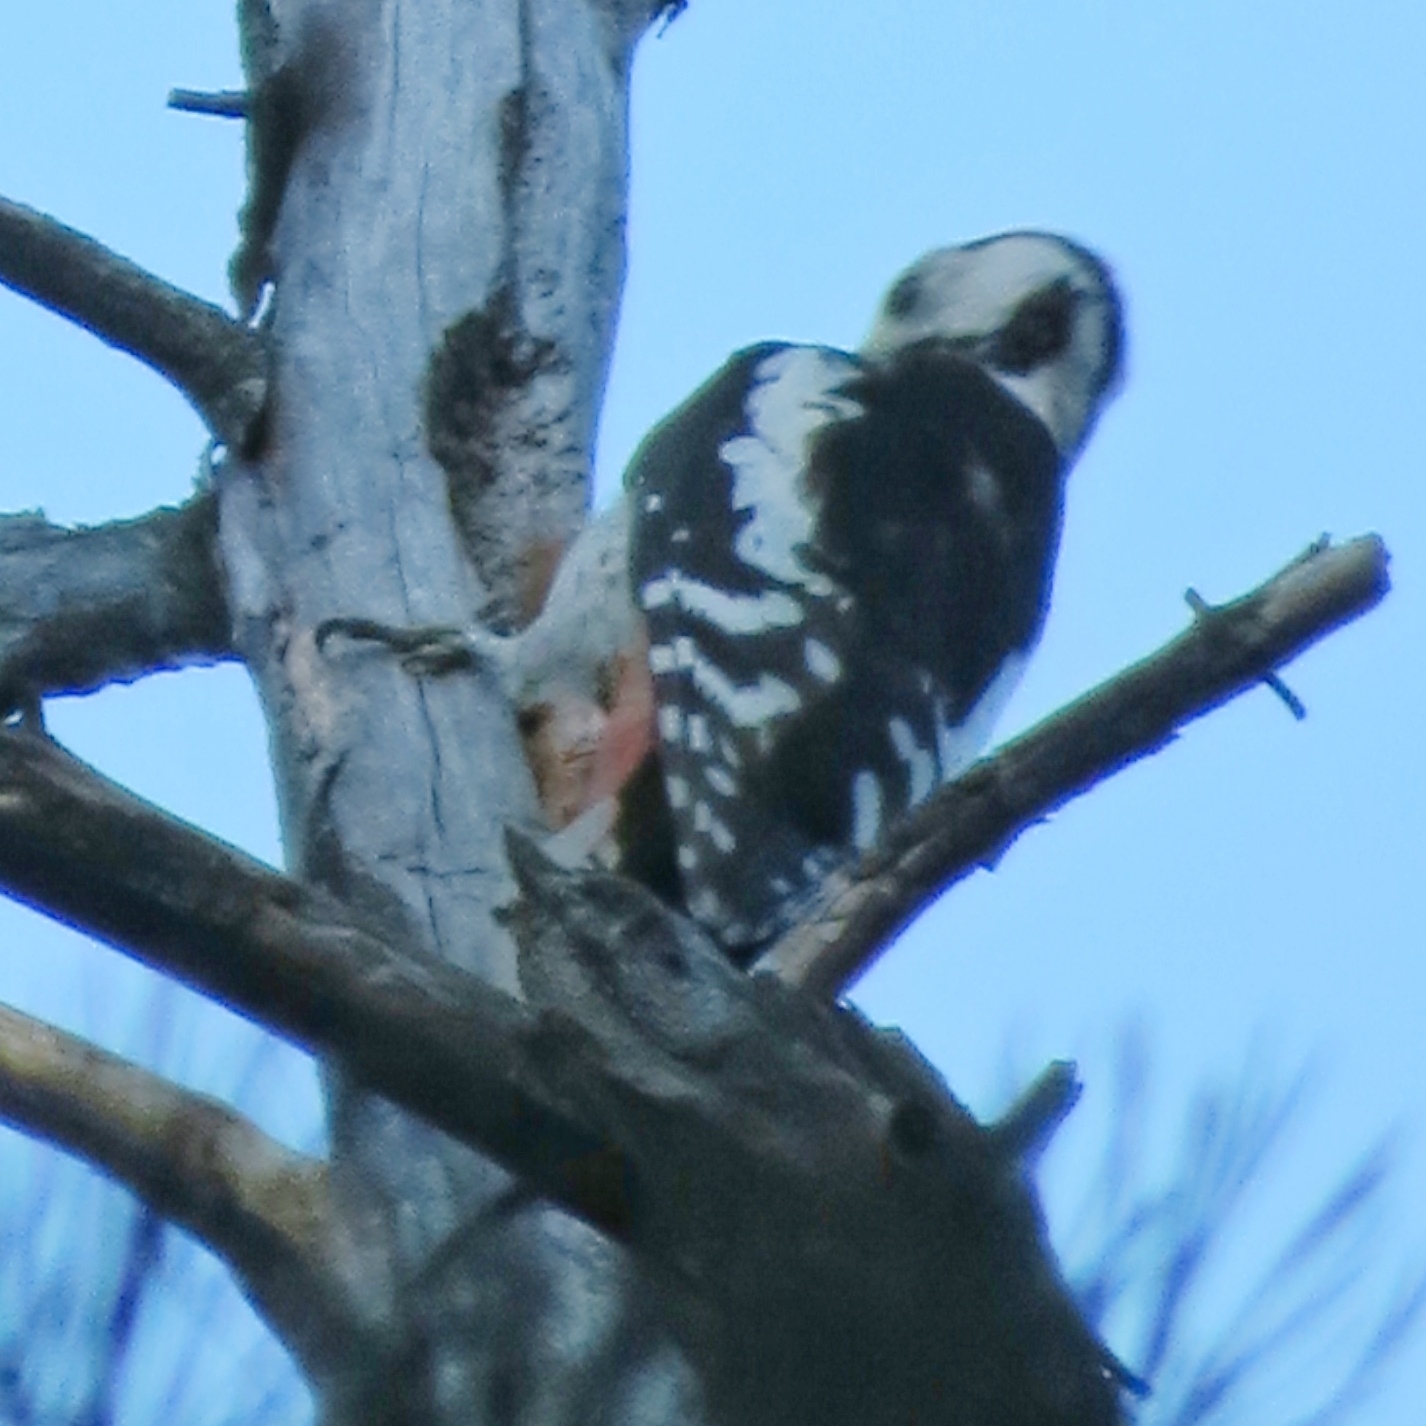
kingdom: Animalia
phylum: Chordata
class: Aves
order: Piciformes
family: Picidae
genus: Dendrocopos
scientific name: Dendrocopos major
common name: Great spotted woodpecker
